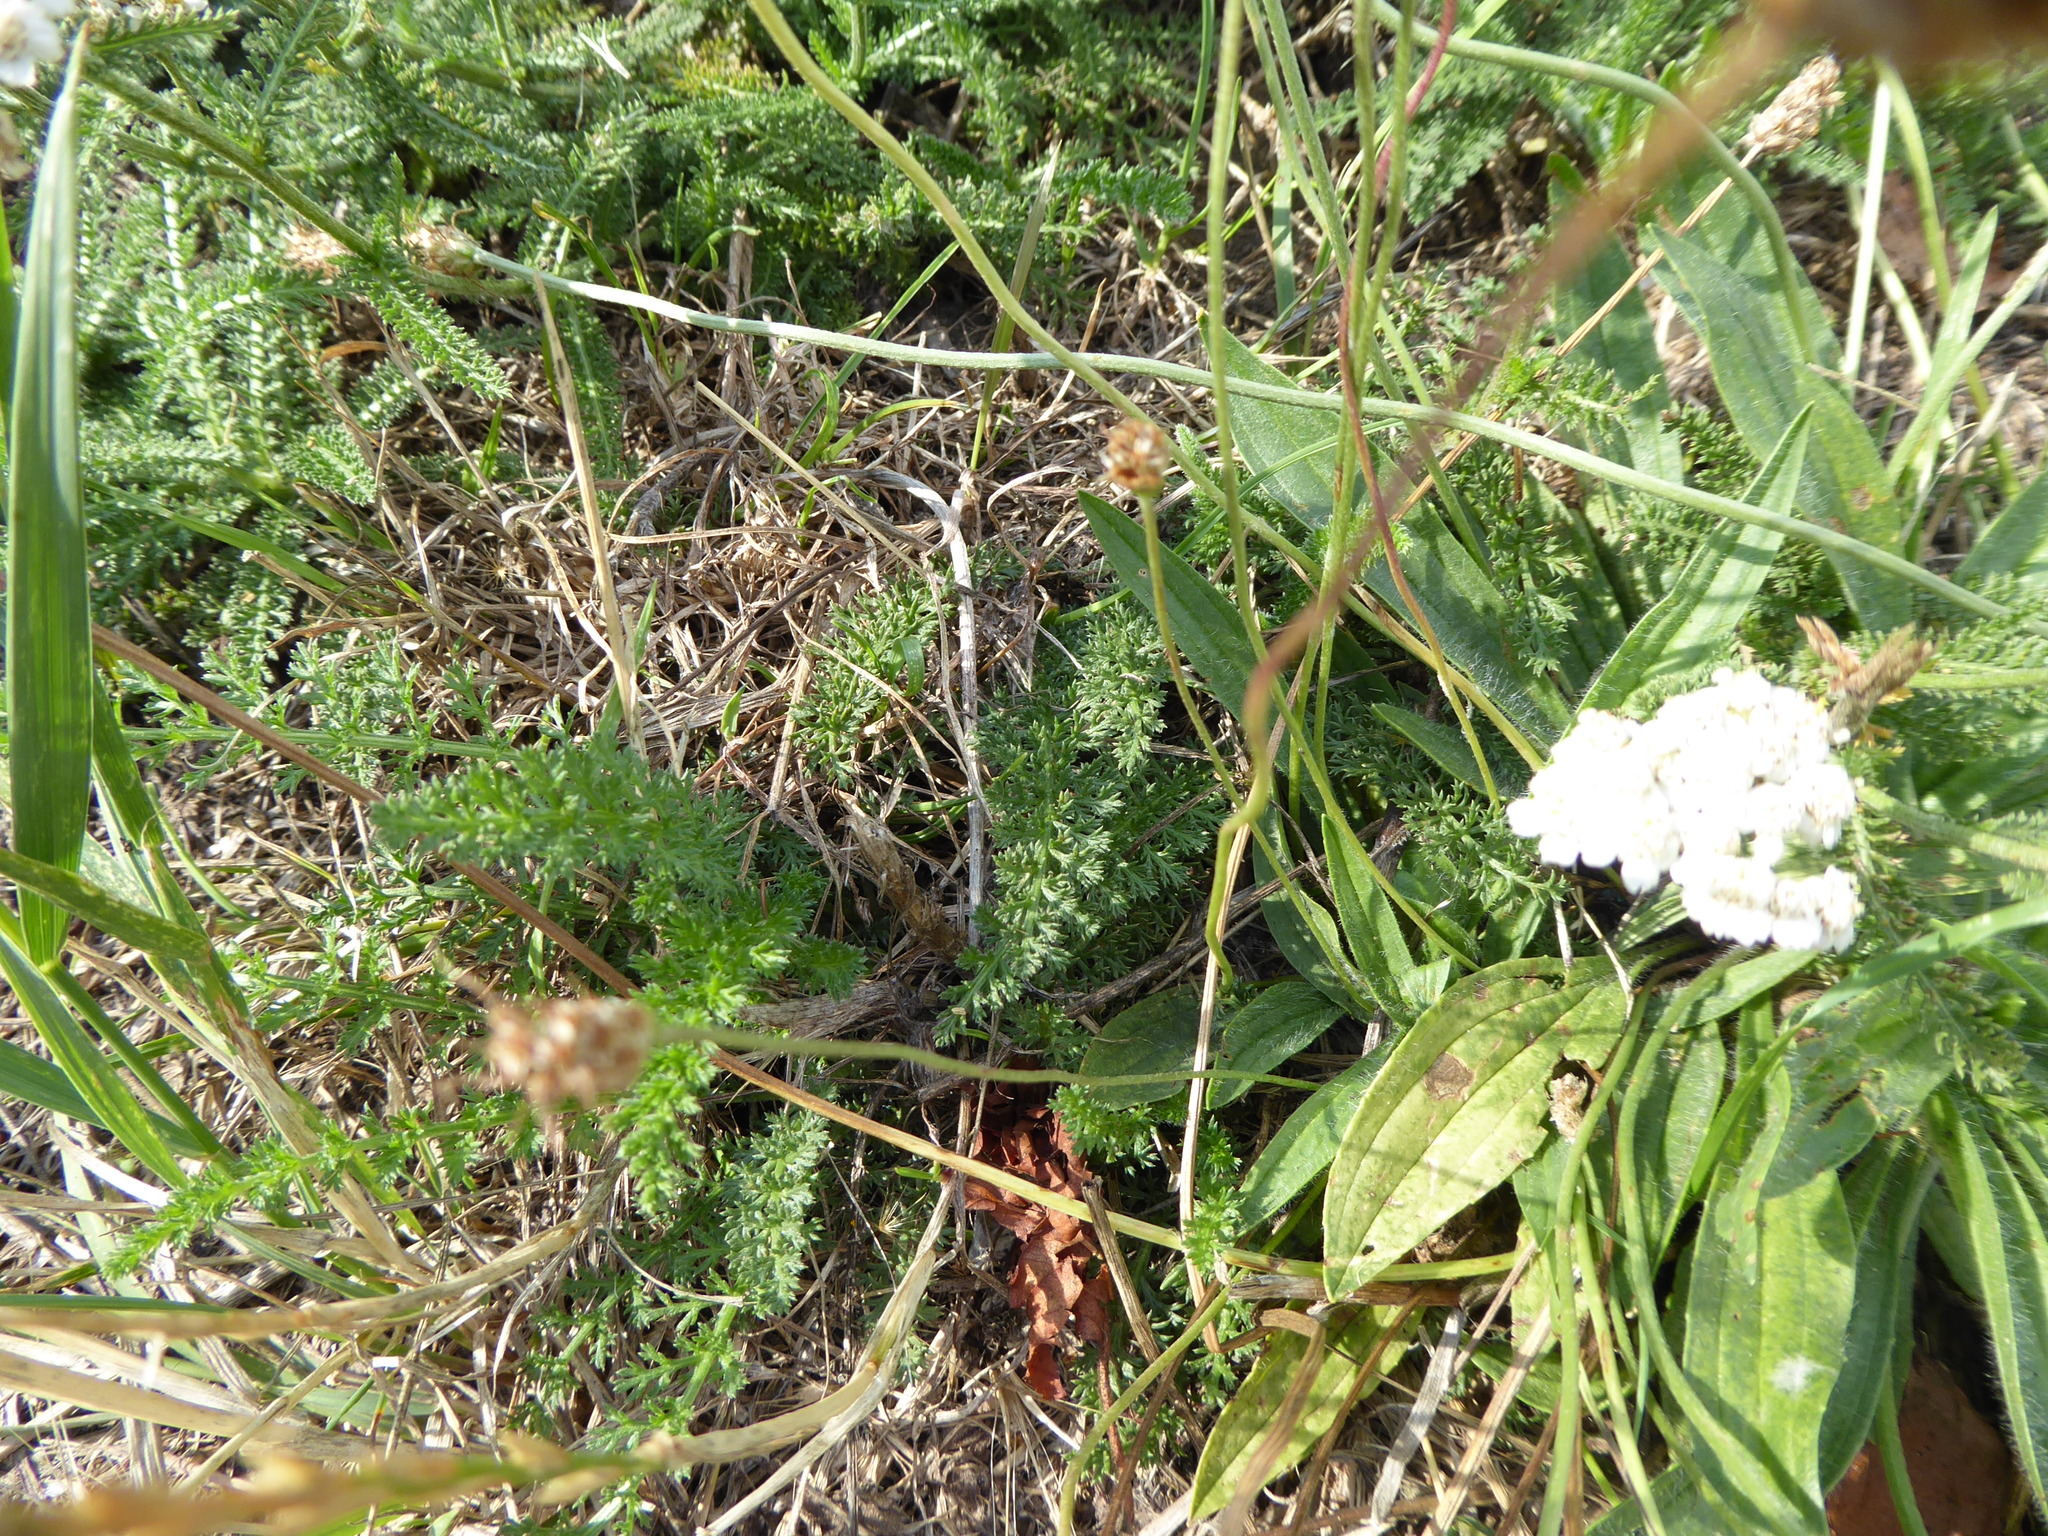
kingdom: Plantae
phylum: Tracheophyta
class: Magnoliopsida
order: Asterales
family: Asteraceae
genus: Achillea
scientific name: Achillea millefolium
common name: Yarrow
